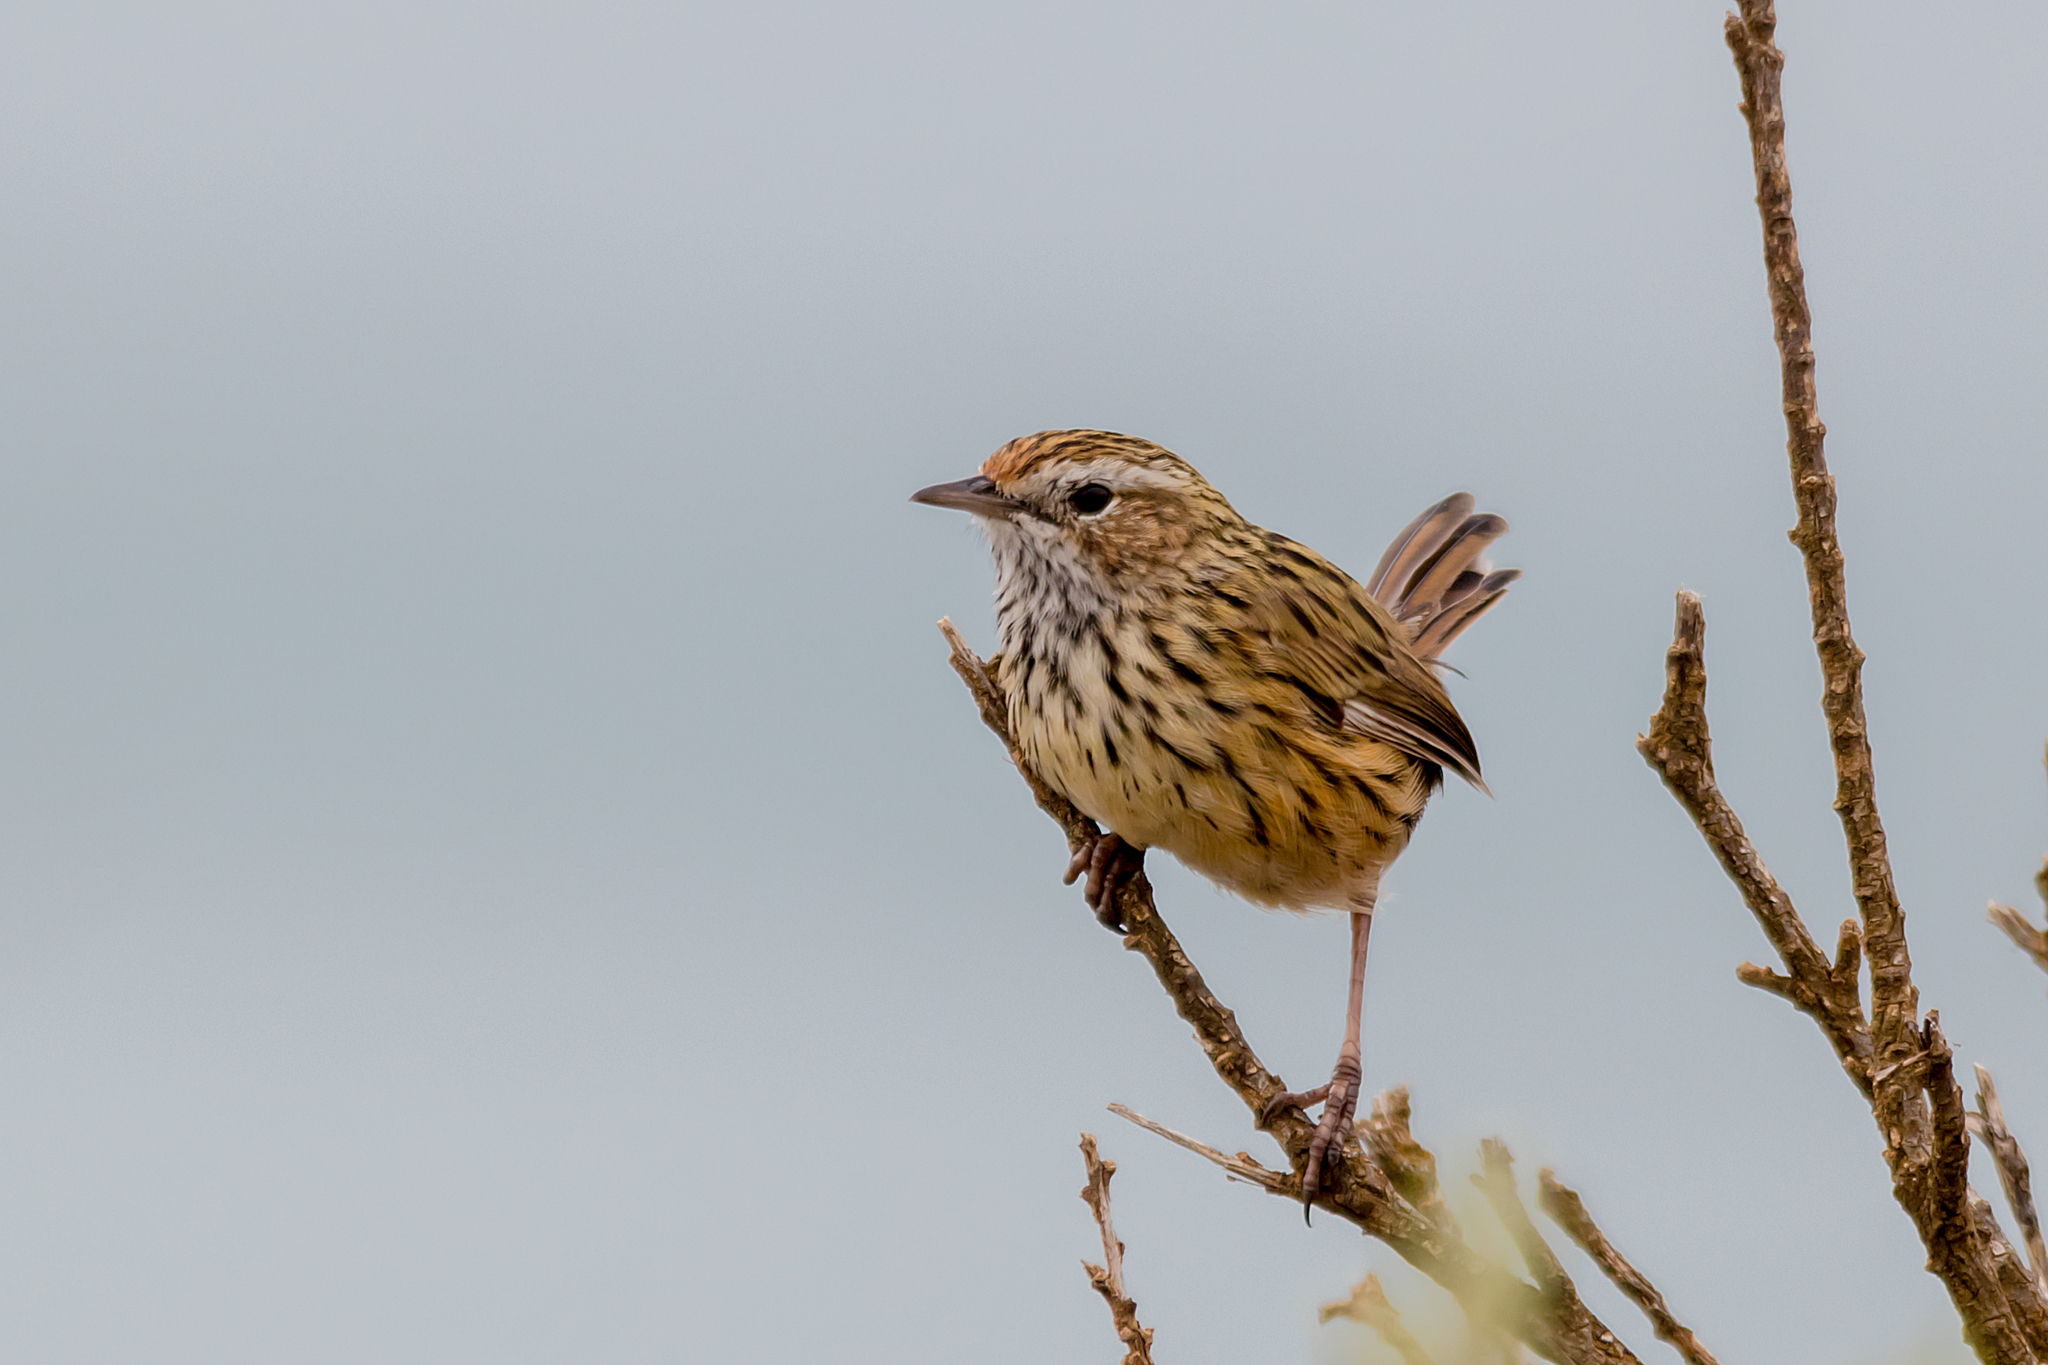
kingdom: Animalia
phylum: Chordata
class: Aves
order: Passeriformes
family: Acanthizidae
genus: Calamanthus
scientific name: Calamanthus fuliginosus
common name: Striated fieldwren
